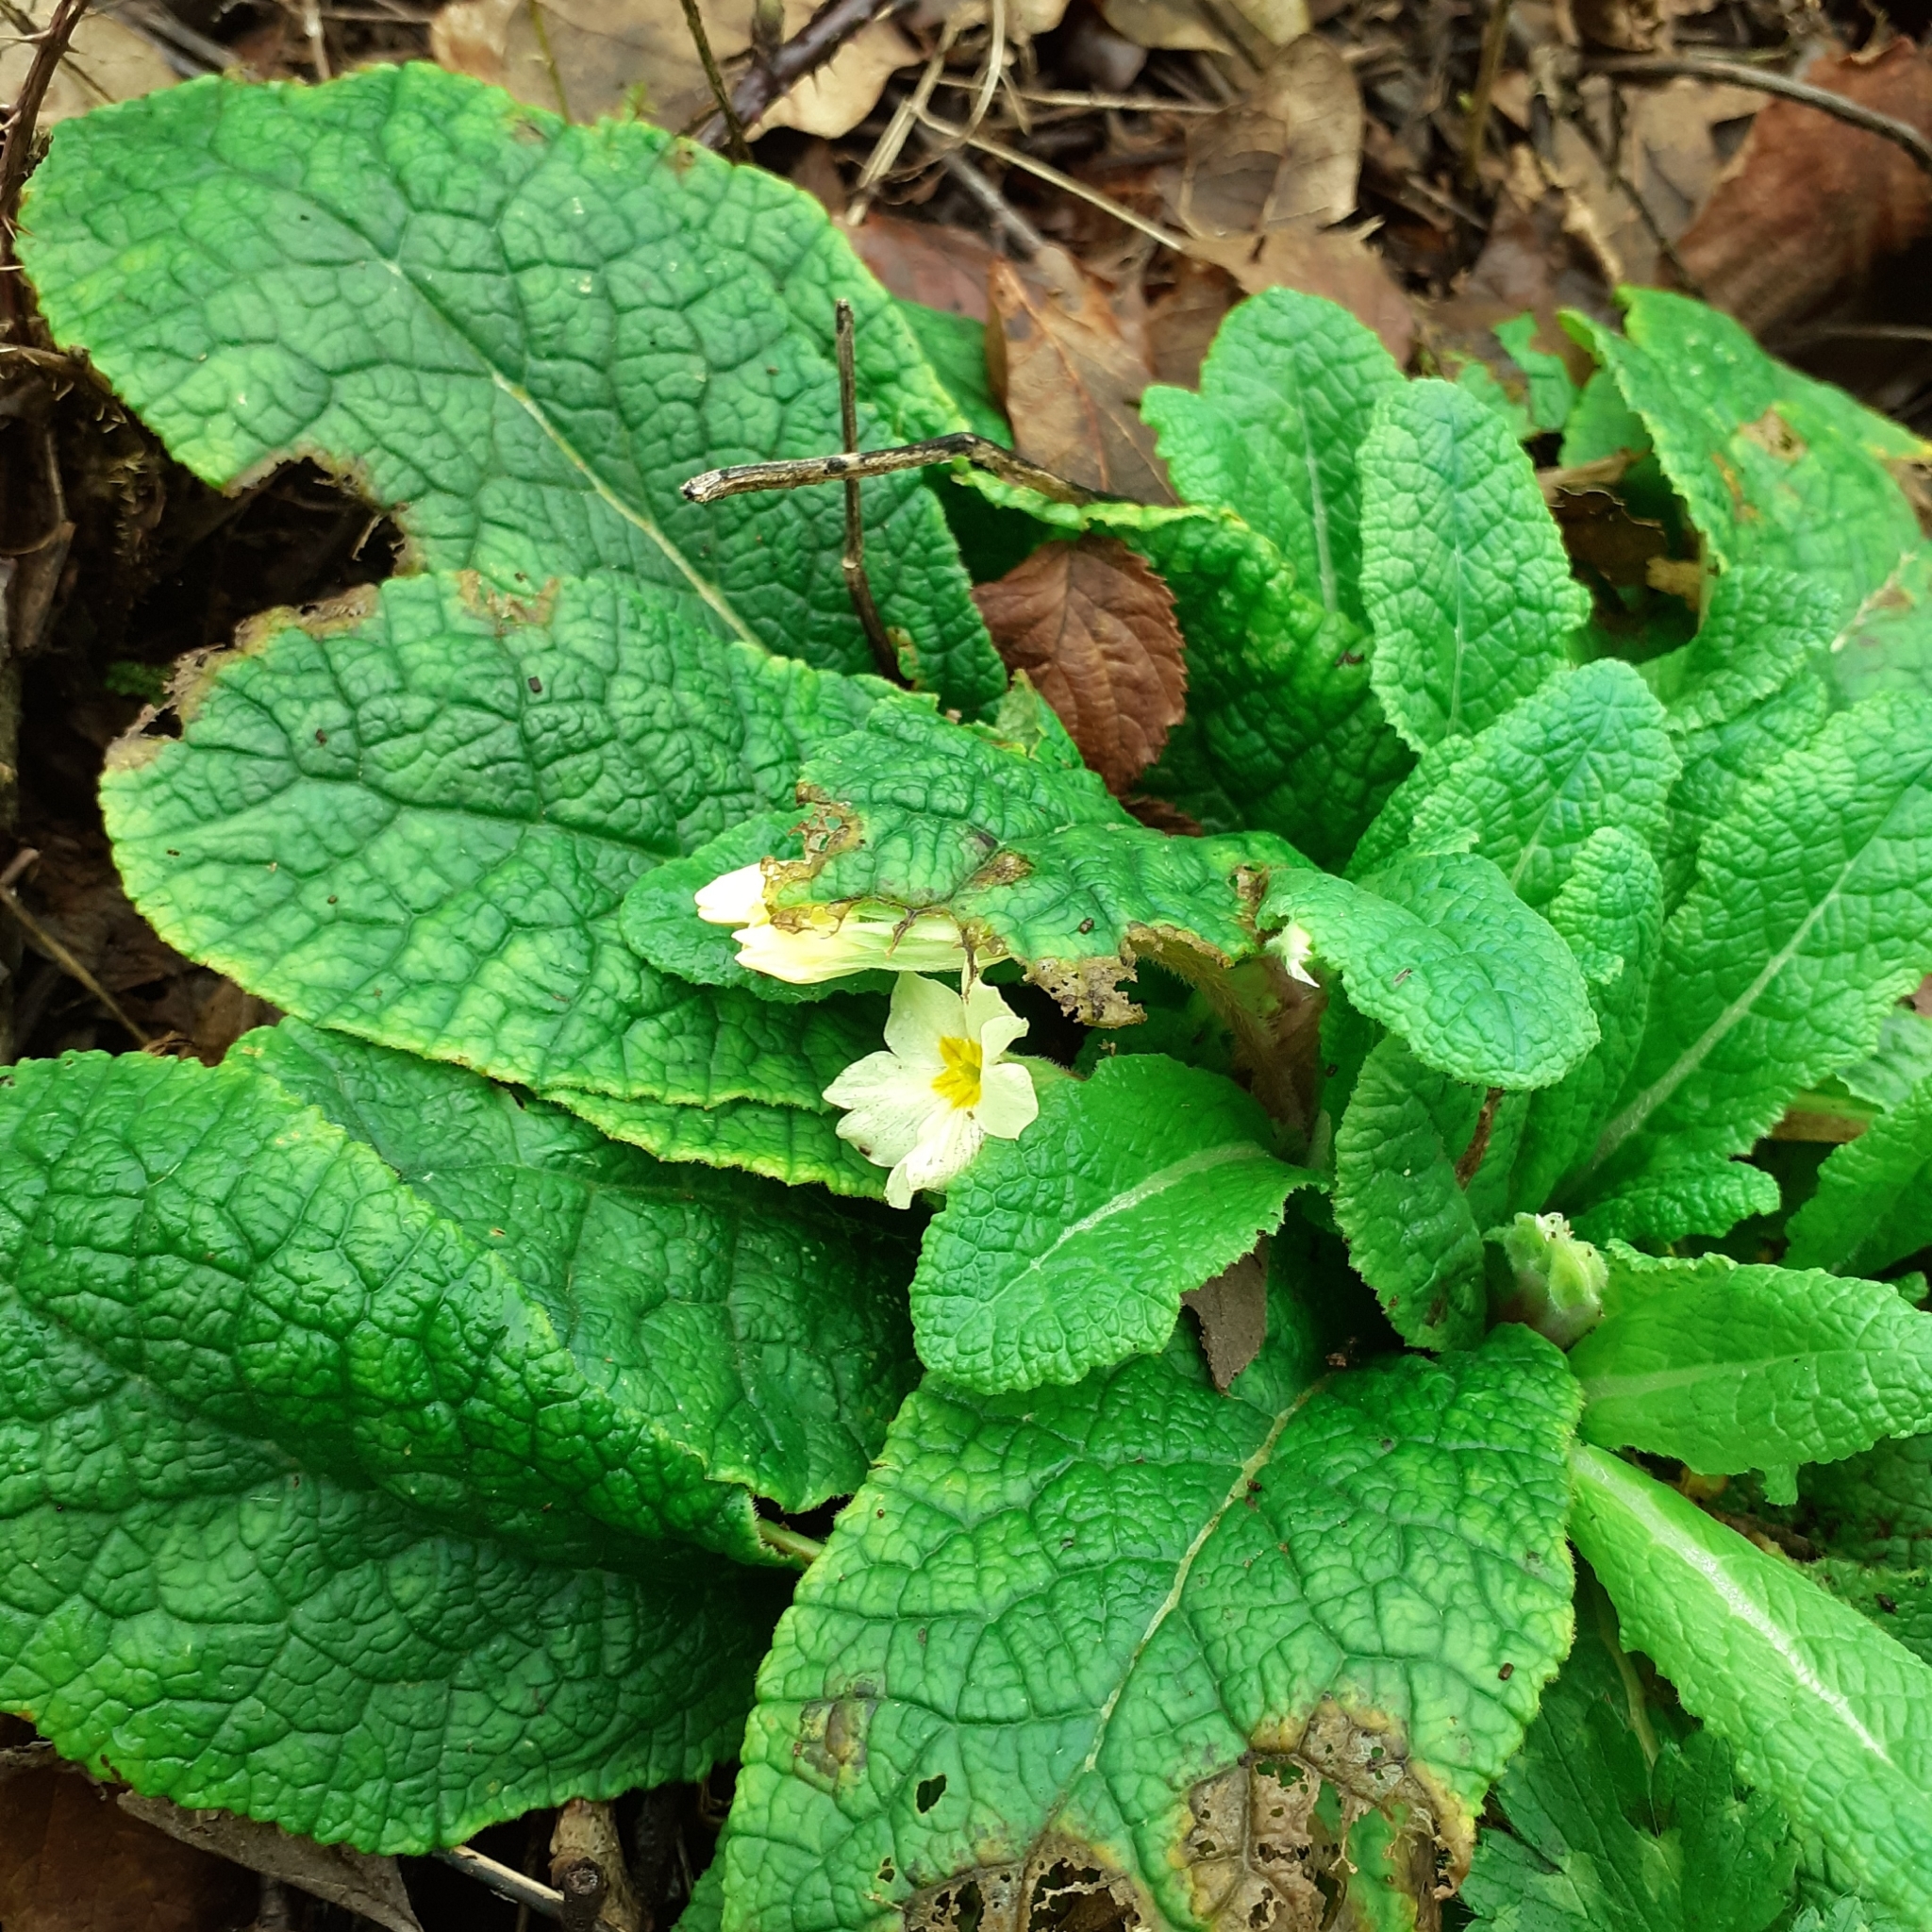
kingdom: Plantae
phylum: Tracheophyta
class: Magnoliopsida
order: Ericales
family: Primulaceae
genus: Primula
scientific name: Primula vulgaris
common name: Primrose
